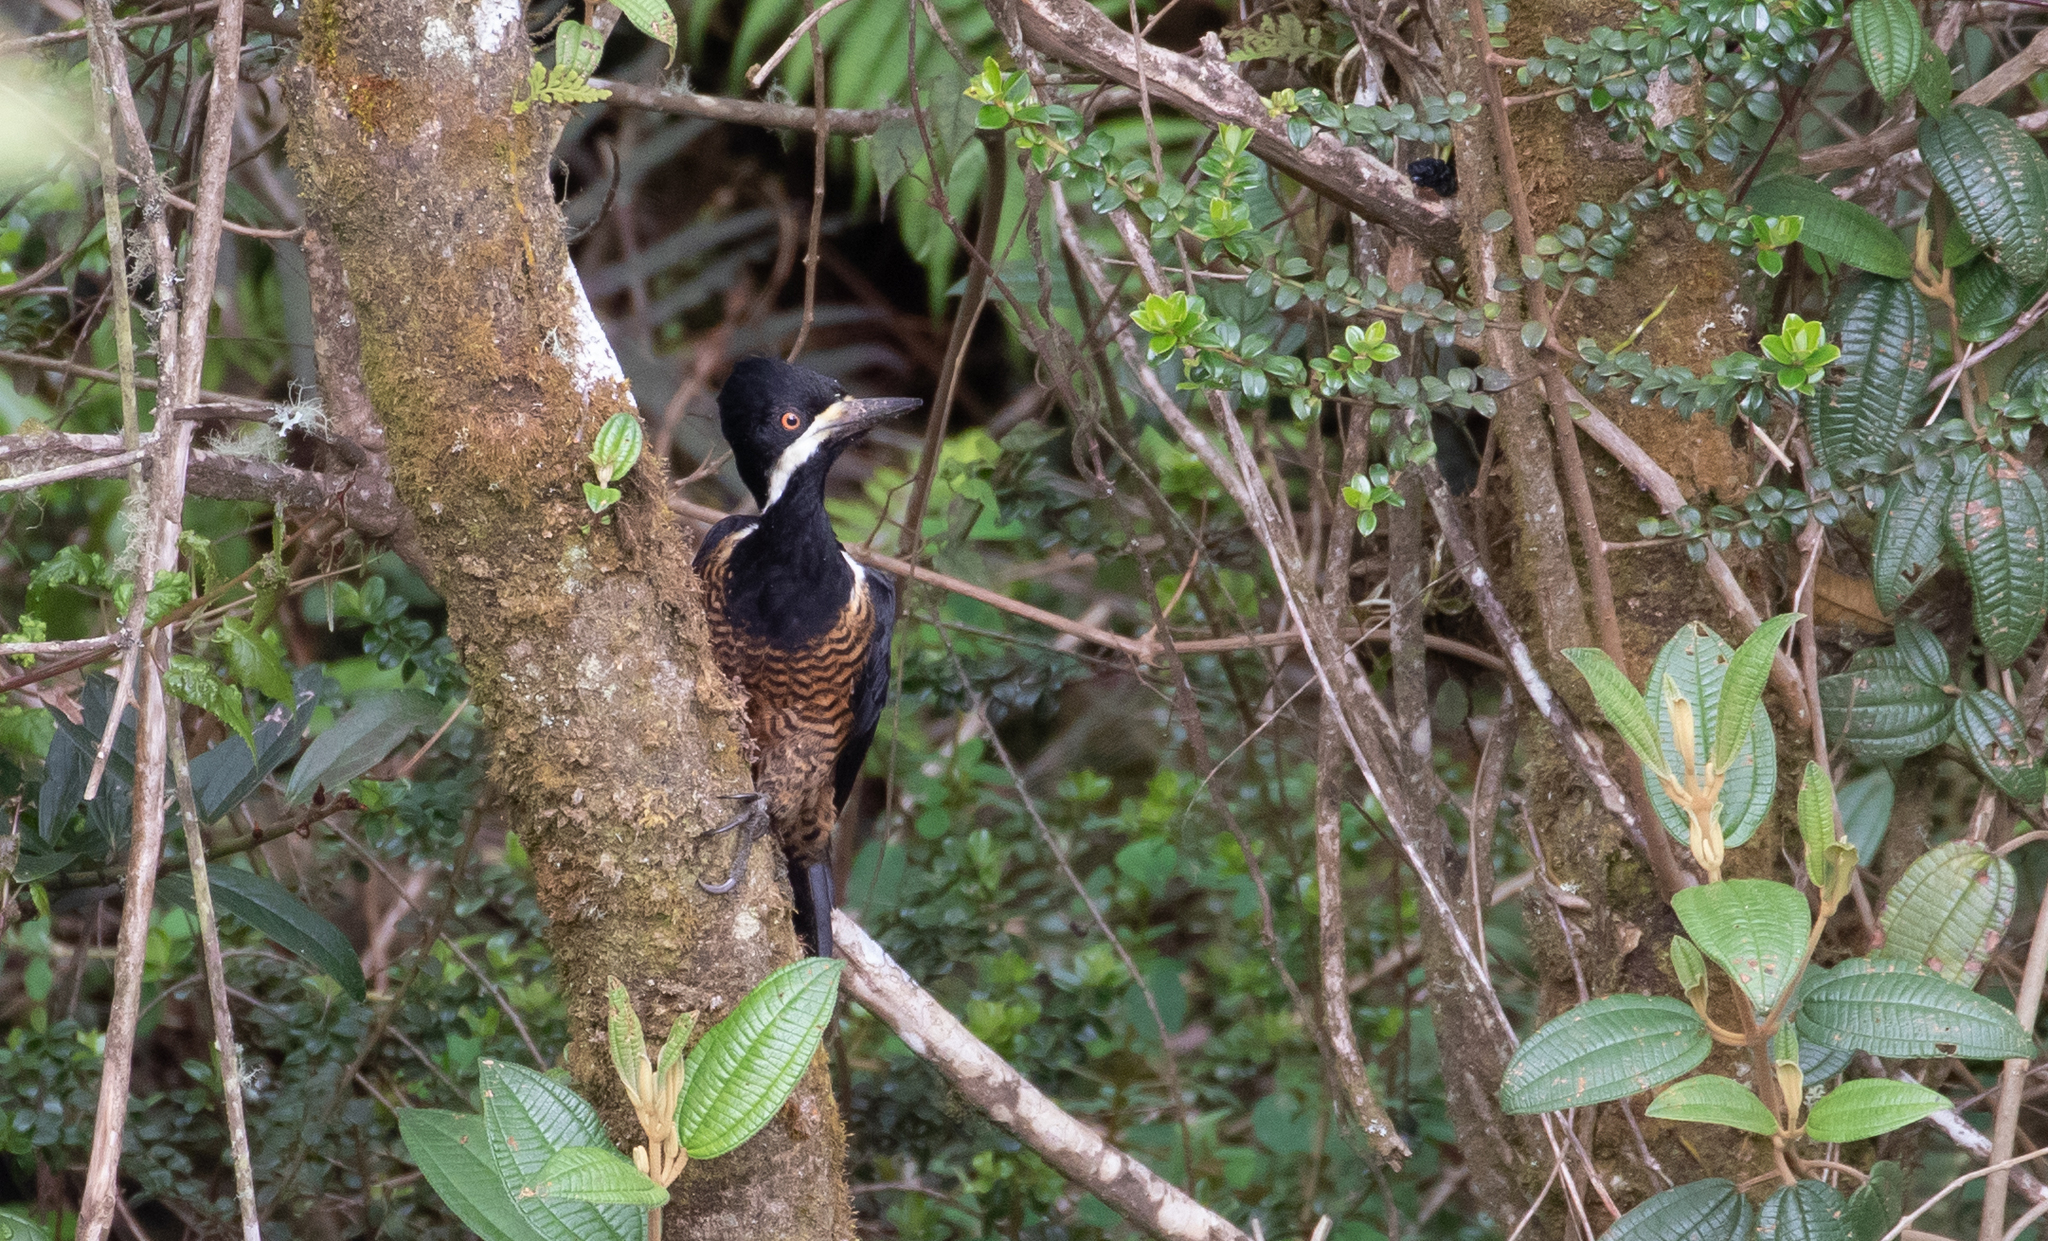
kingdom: Animalia
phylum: Chordata
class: Aves
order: Piciformes
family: Picidae
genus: Campephilus
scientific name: Campephilus pollens
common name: Powerful woodpecker
